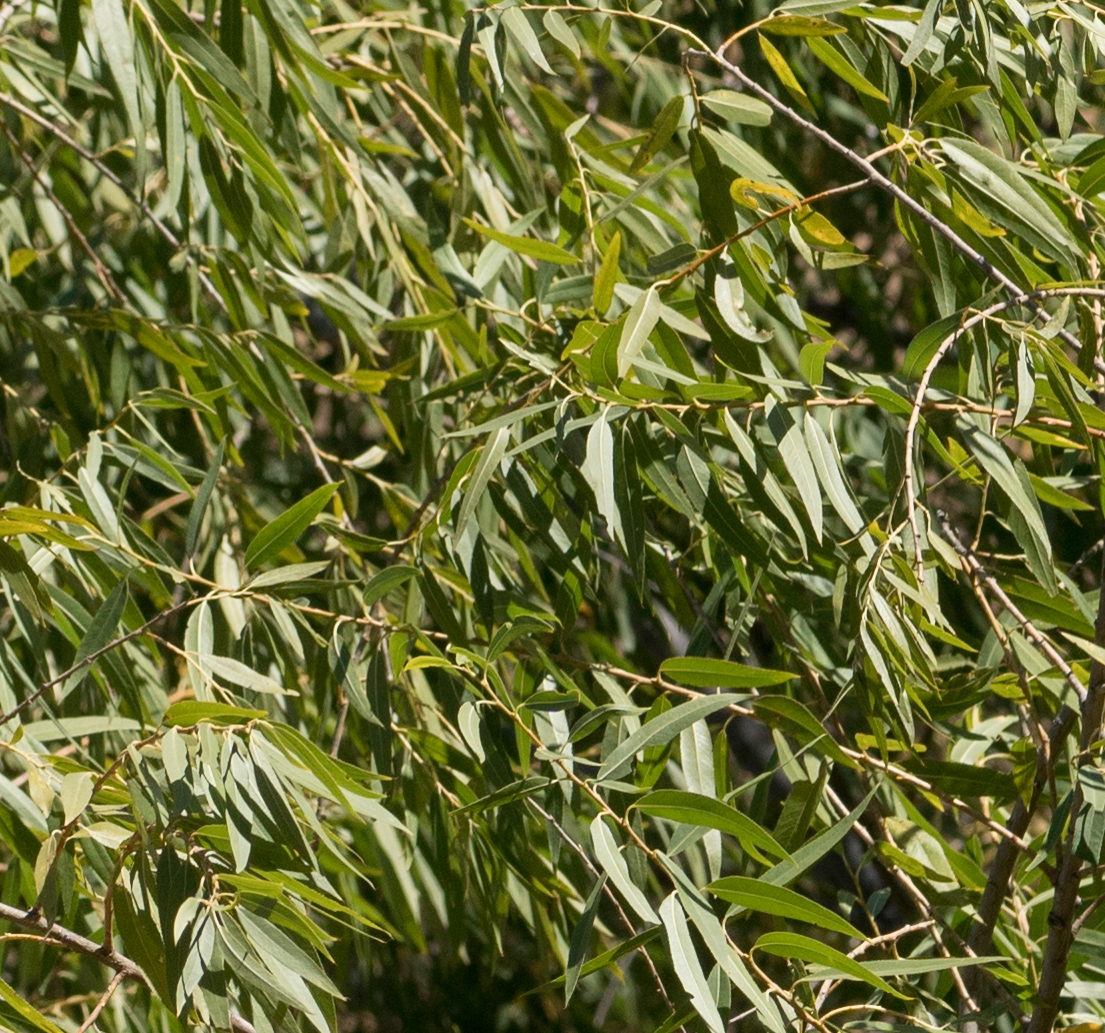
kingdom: Plantae
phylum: Tracheophyta
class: Magnoliopsida
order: Malpighiales
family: Salicaceae
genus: Salix
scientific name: Salix gooddingii
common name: Goodding's willow
